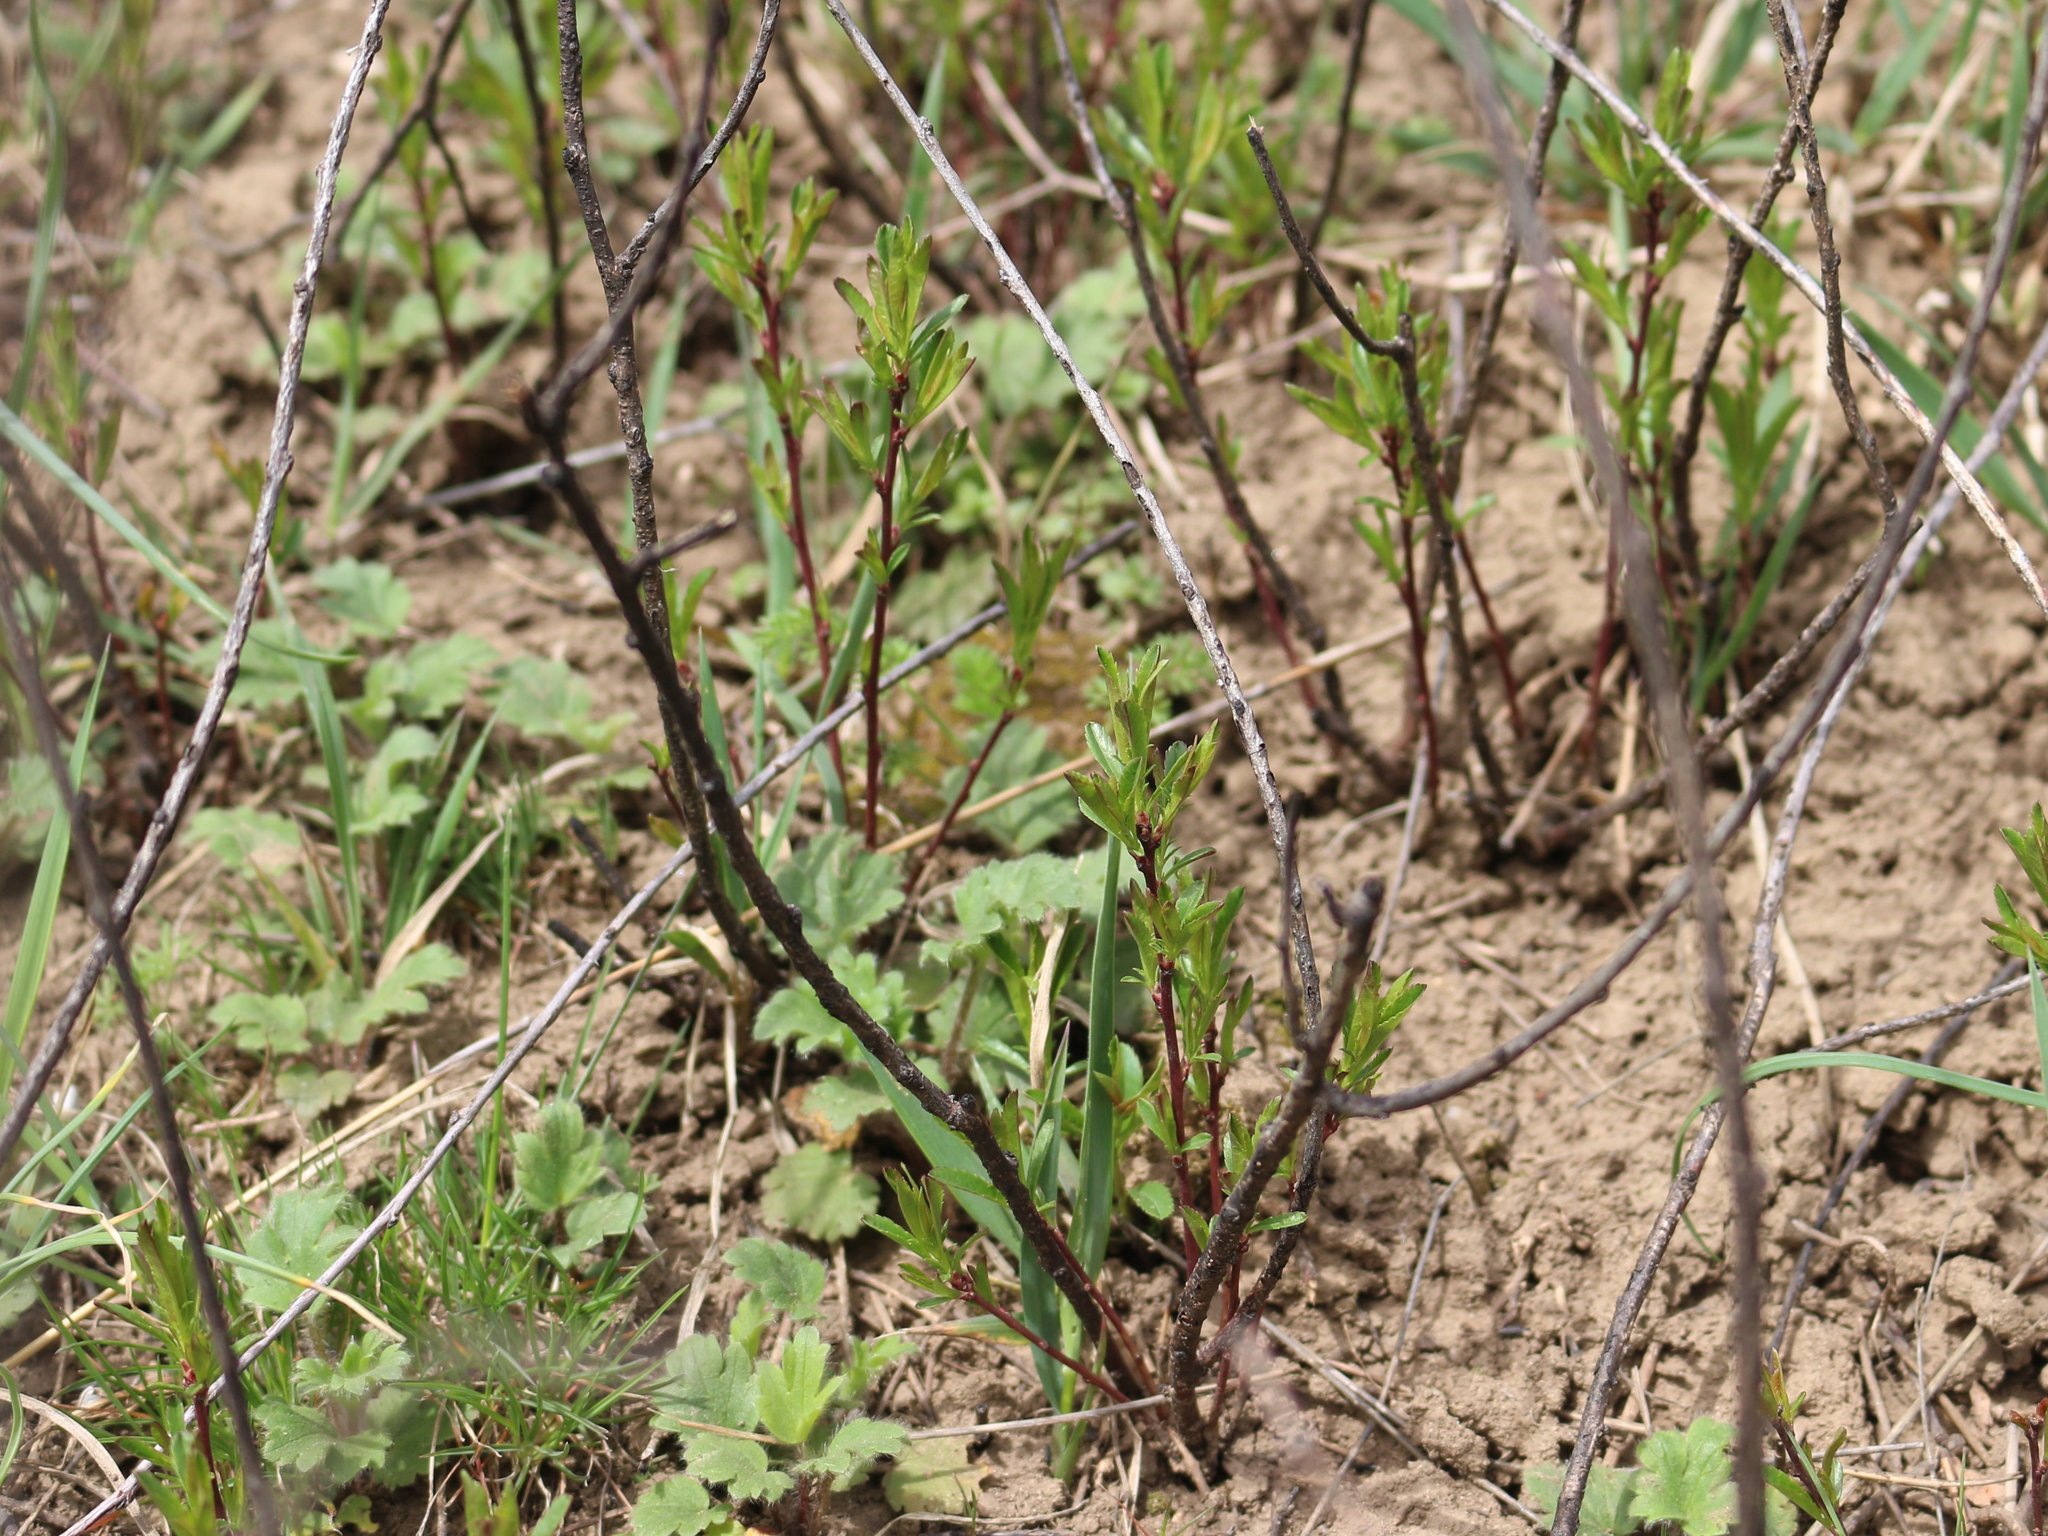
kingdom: Plantae
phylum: Tracheophyta
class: Magnoliopsida
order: Rosales
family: Rosaceae
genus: Prunus
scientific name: Prunus tenella
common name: Dwarf russian almond
